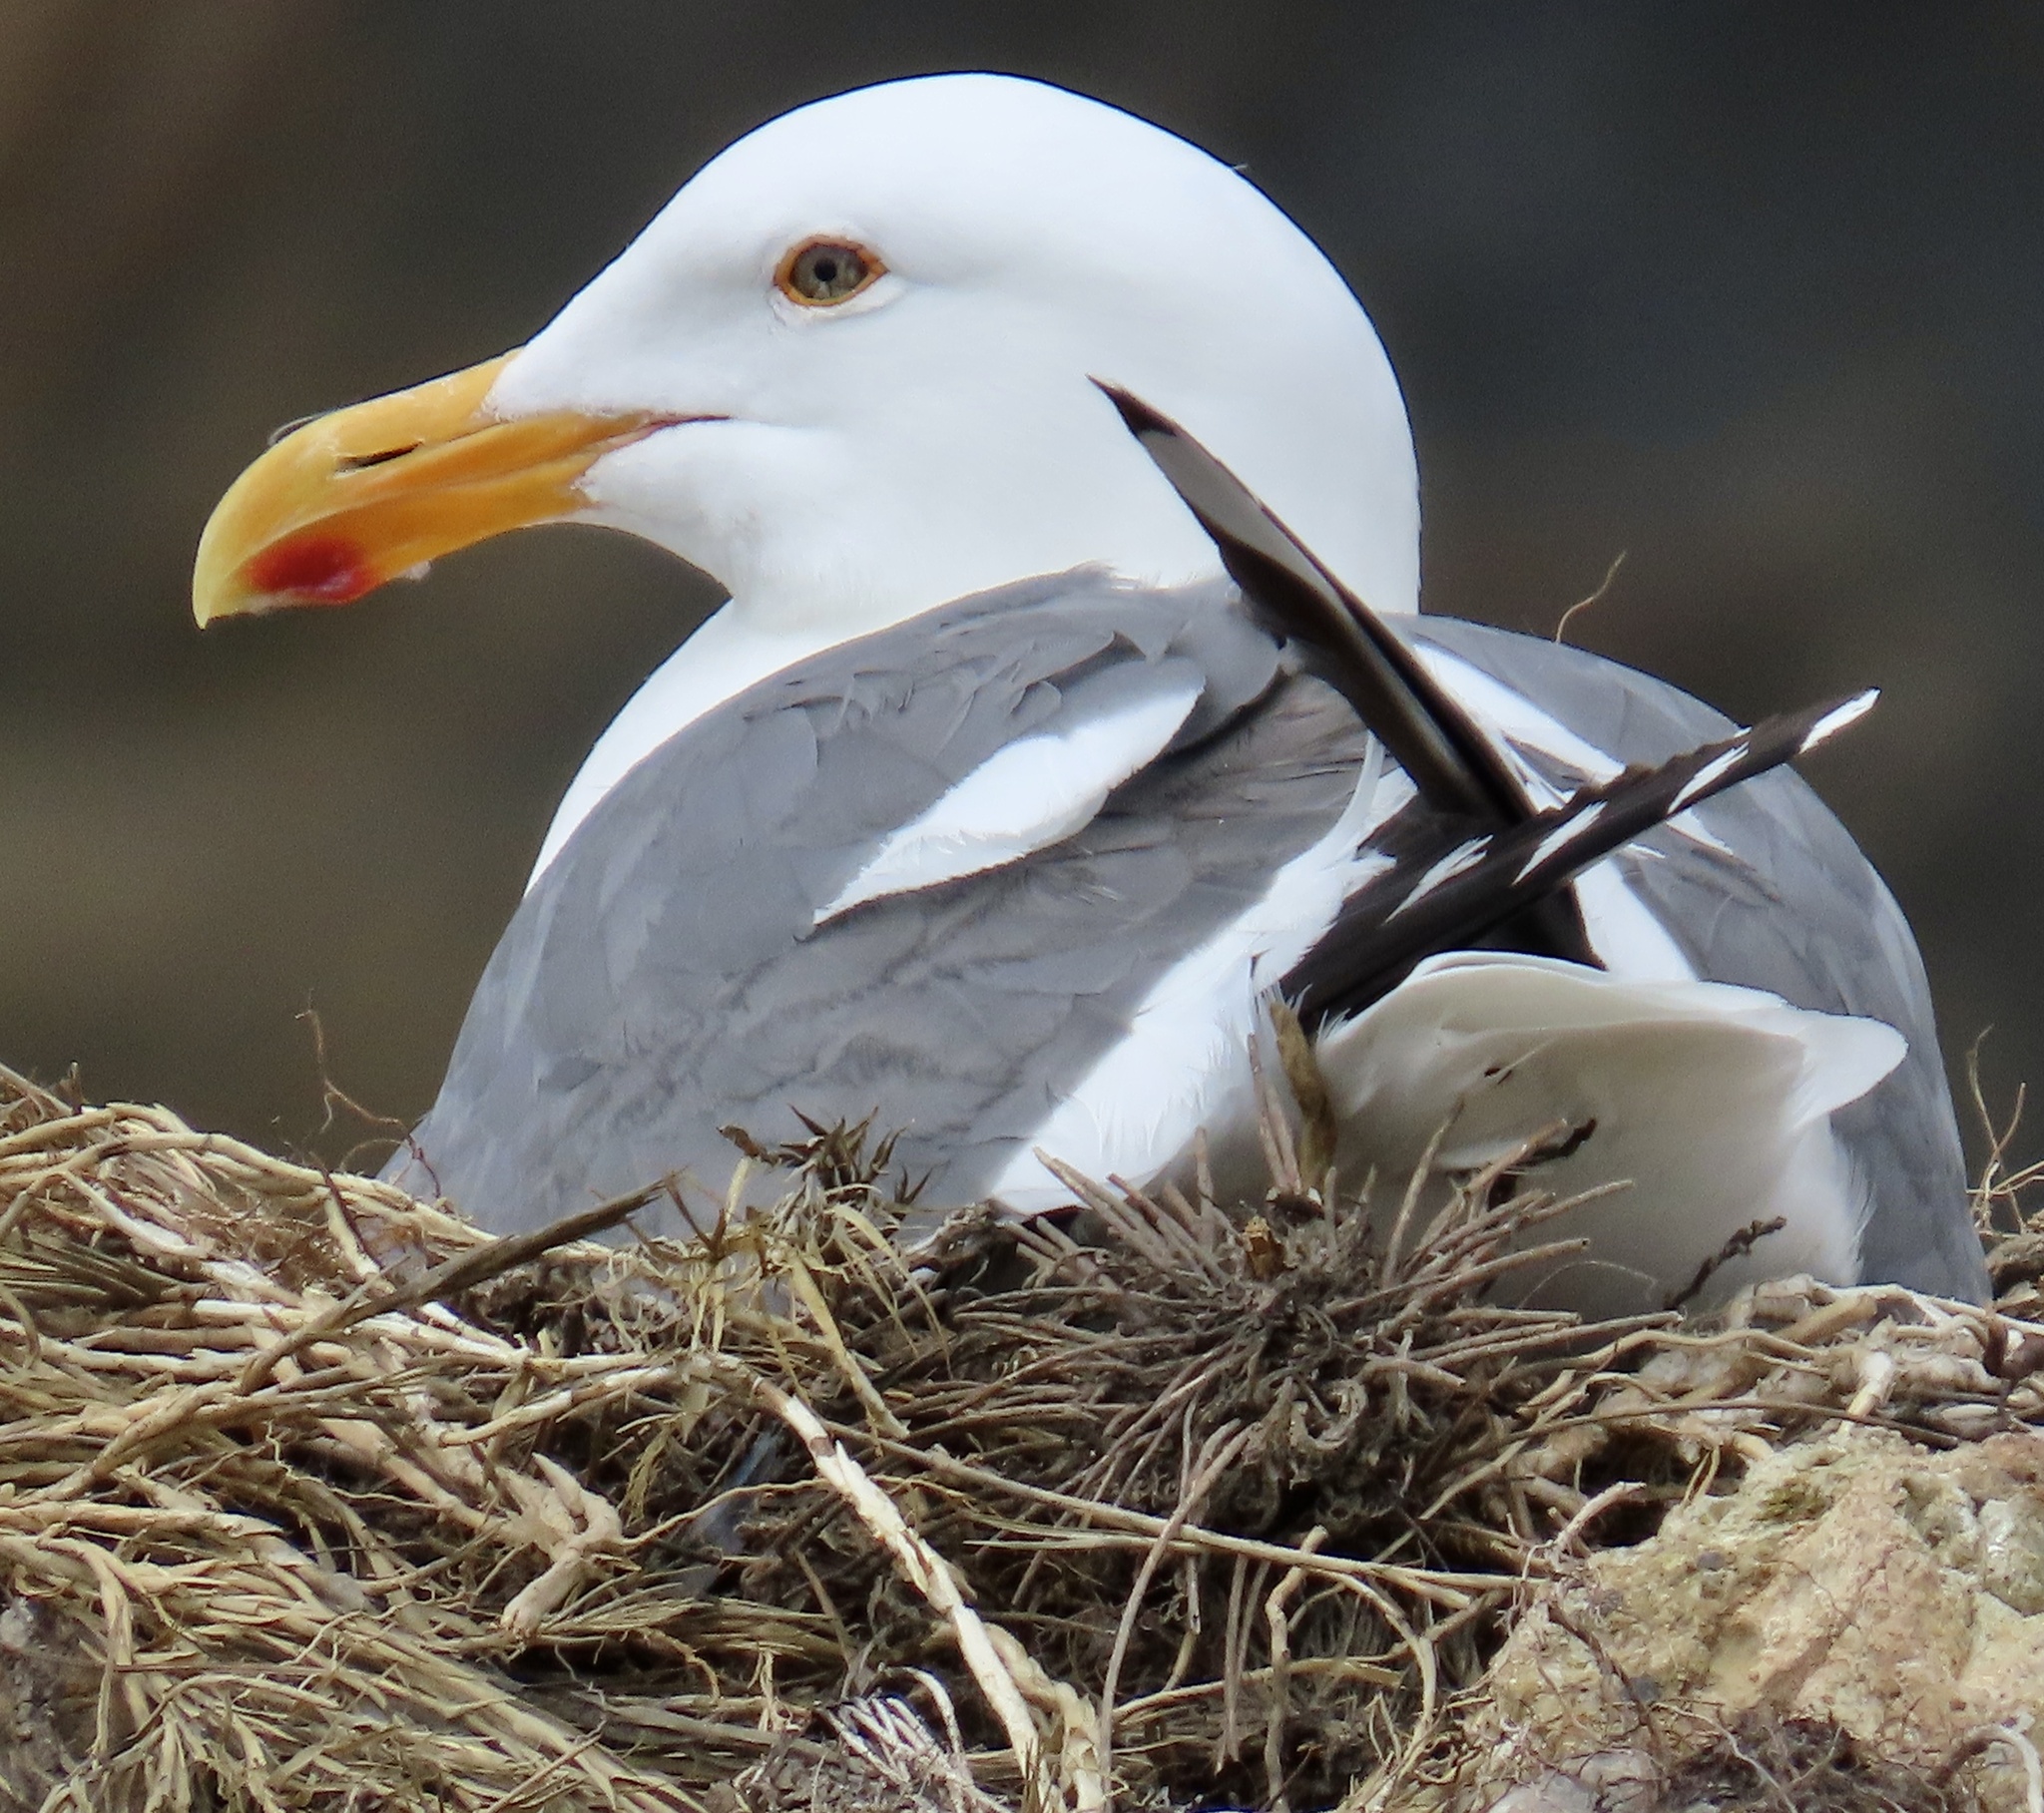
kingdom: Animalia
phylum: Chordata
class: Aves
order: Charadriiformes
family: Laridae
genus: Larus
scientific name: Larus occidentalis
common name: Western gull
